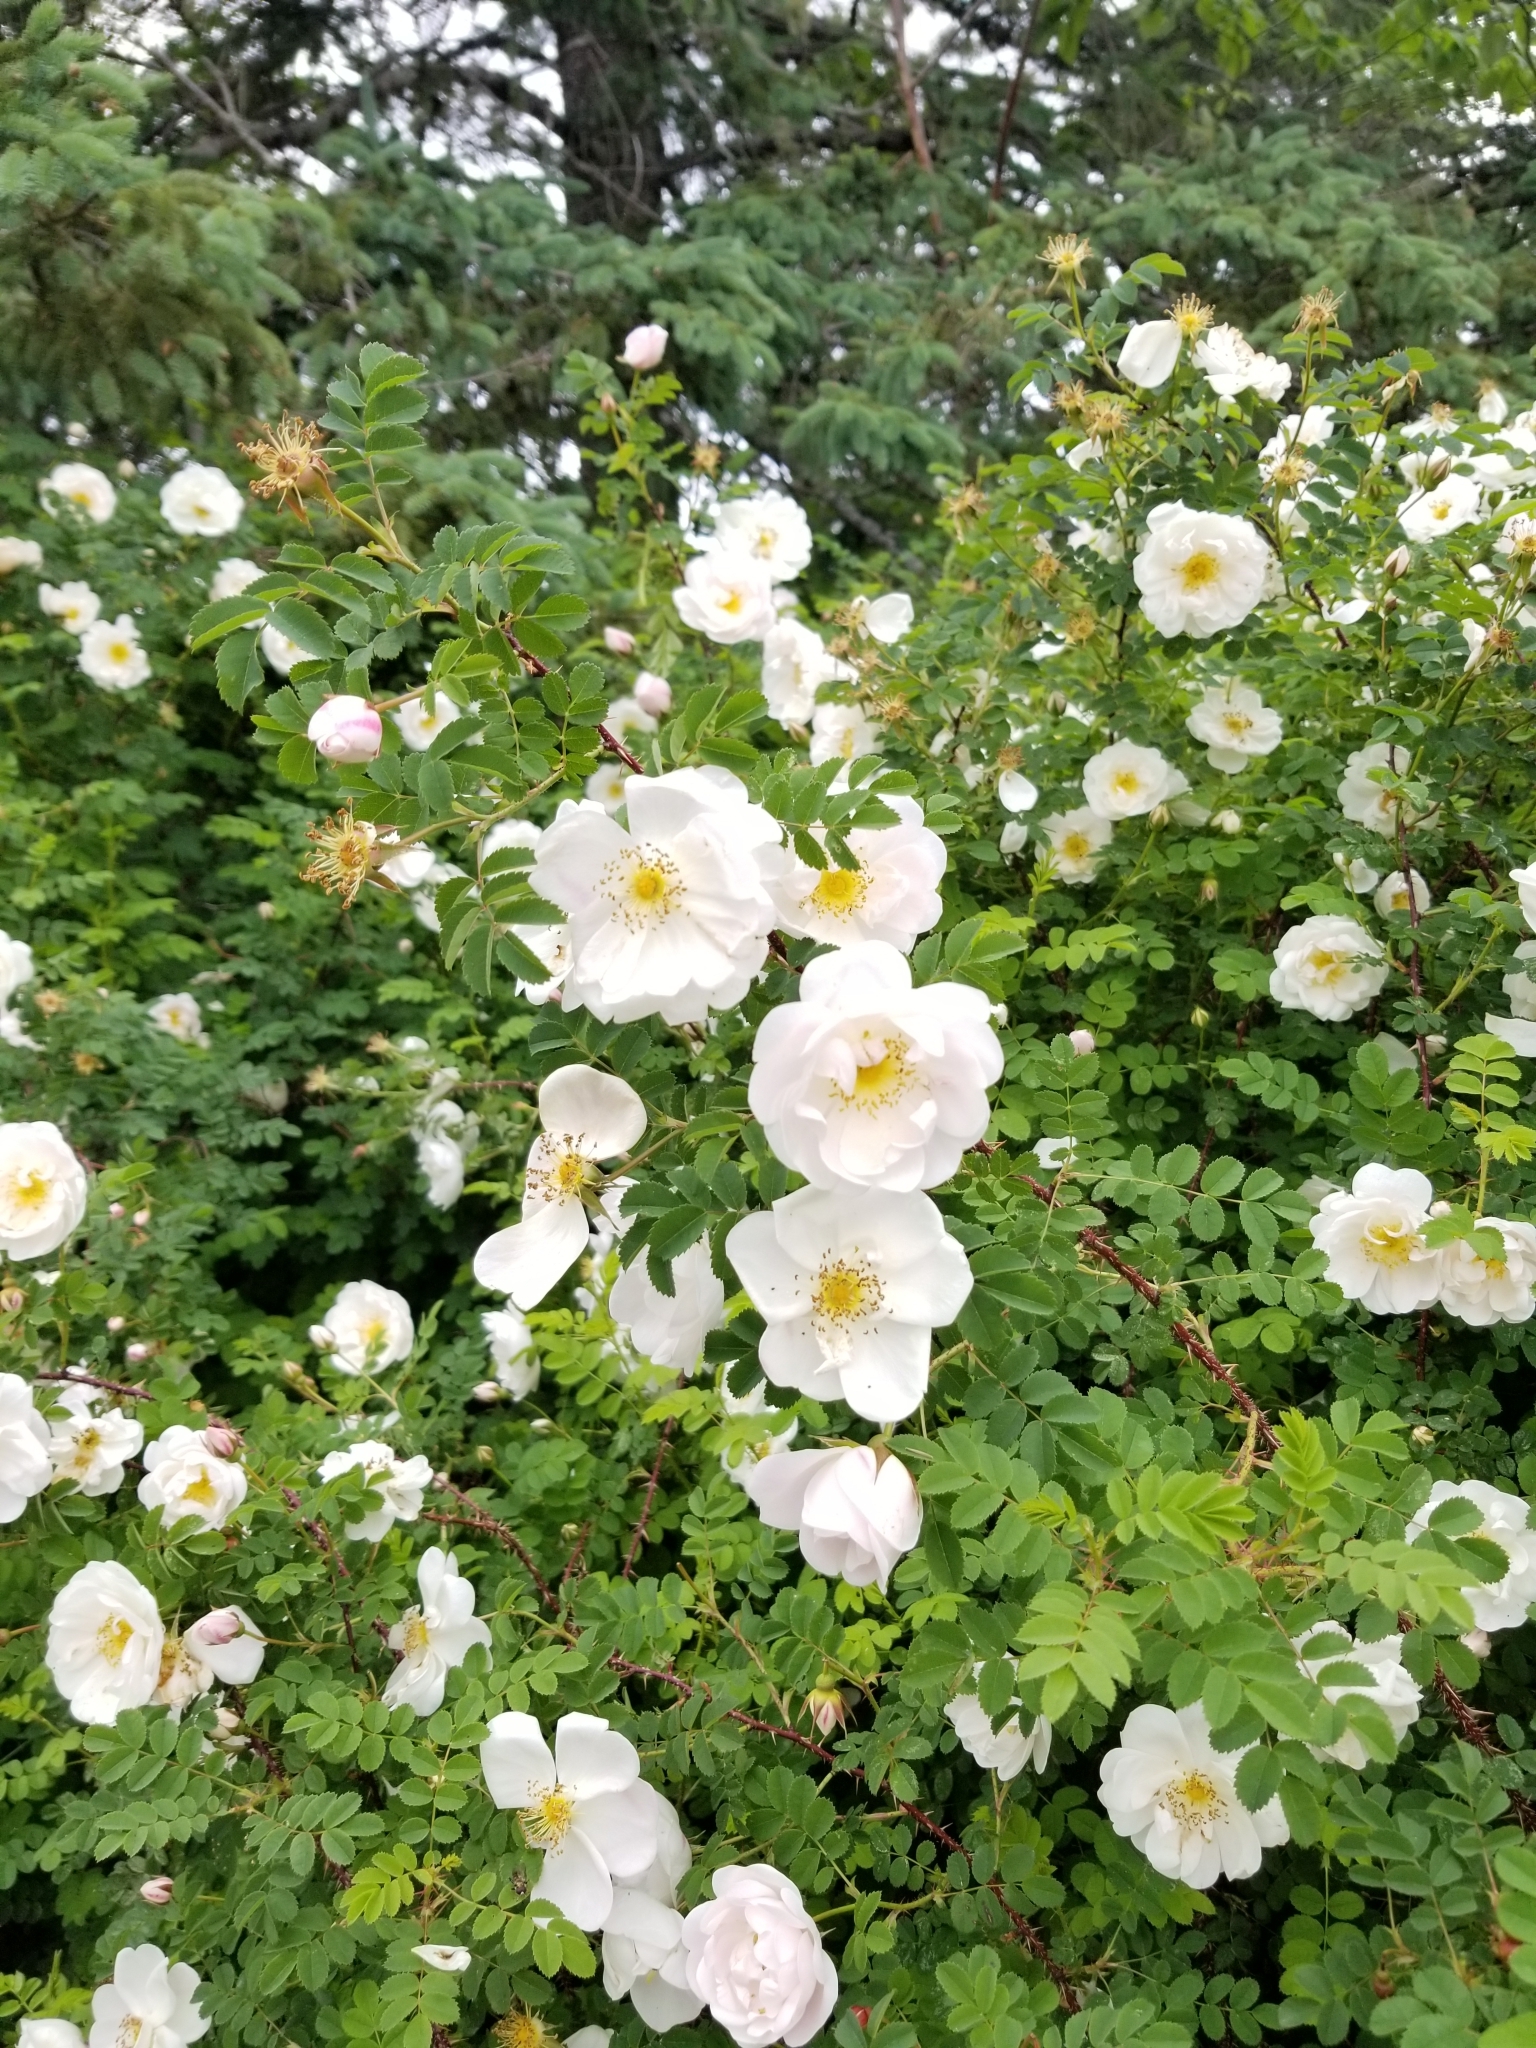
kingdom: Plantae
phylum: Tracheophyta
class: Magnoliopsida
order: Rosales
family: Rosaceae
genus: Rosa
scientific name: Rosa multiflora
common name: Multiflora rose
